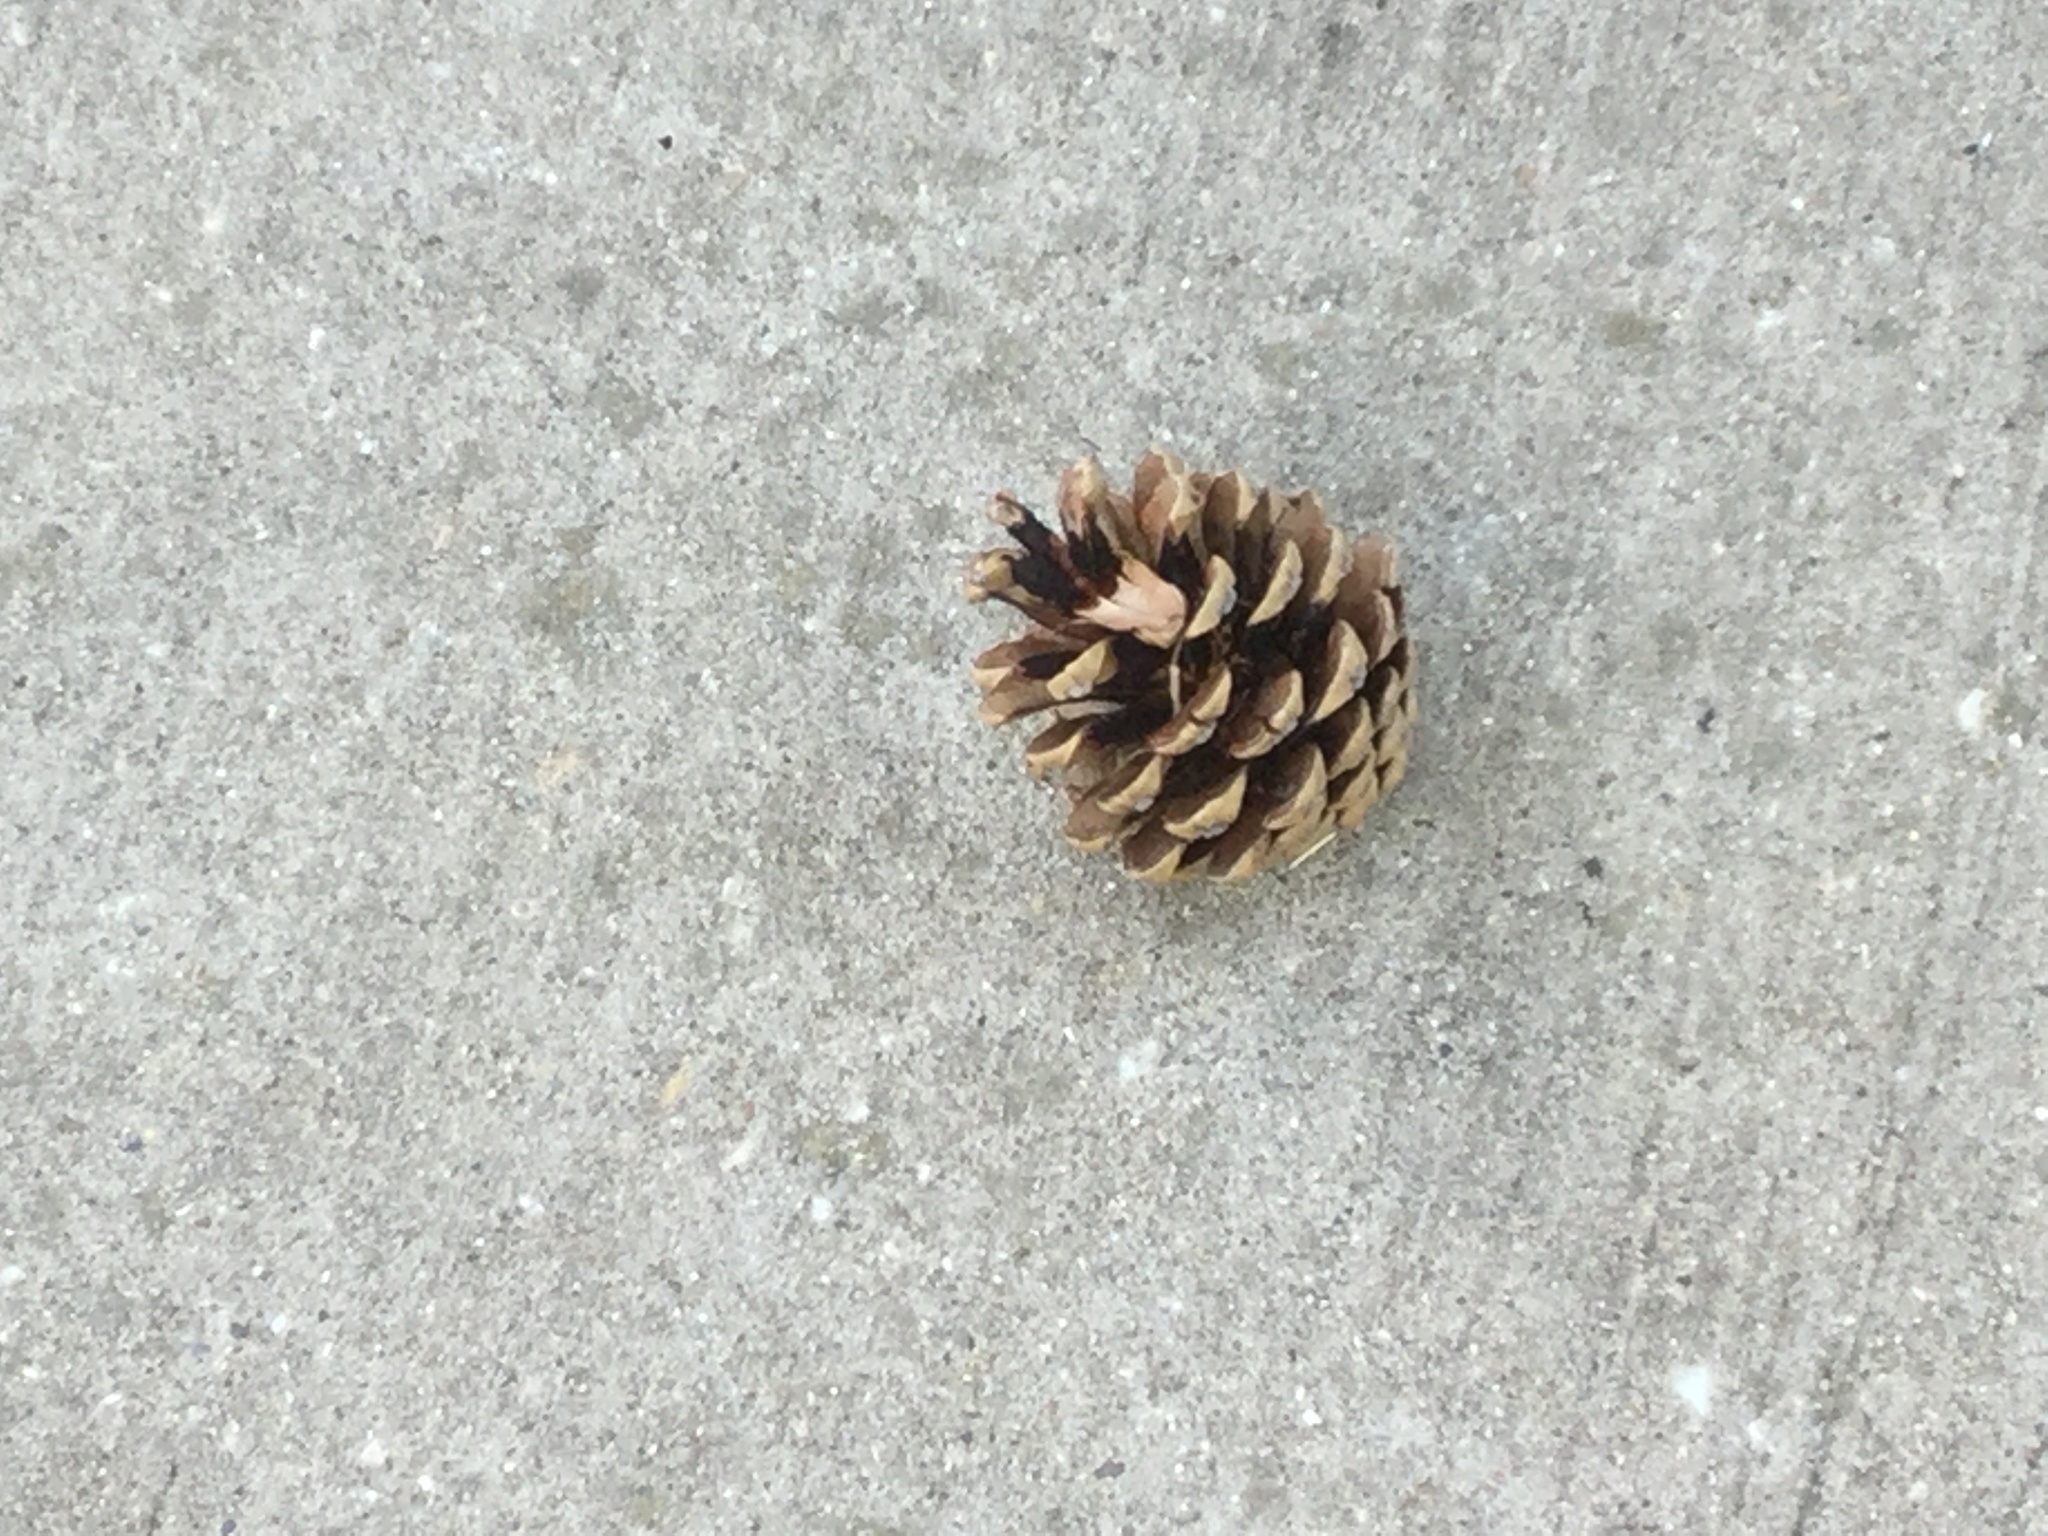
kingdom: Plantae
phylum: Tracheophyta
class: Pinopsida
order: Pinales
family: Pinaceae
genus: Pinus
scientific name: Pinus virginiana
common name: Scrub pine
